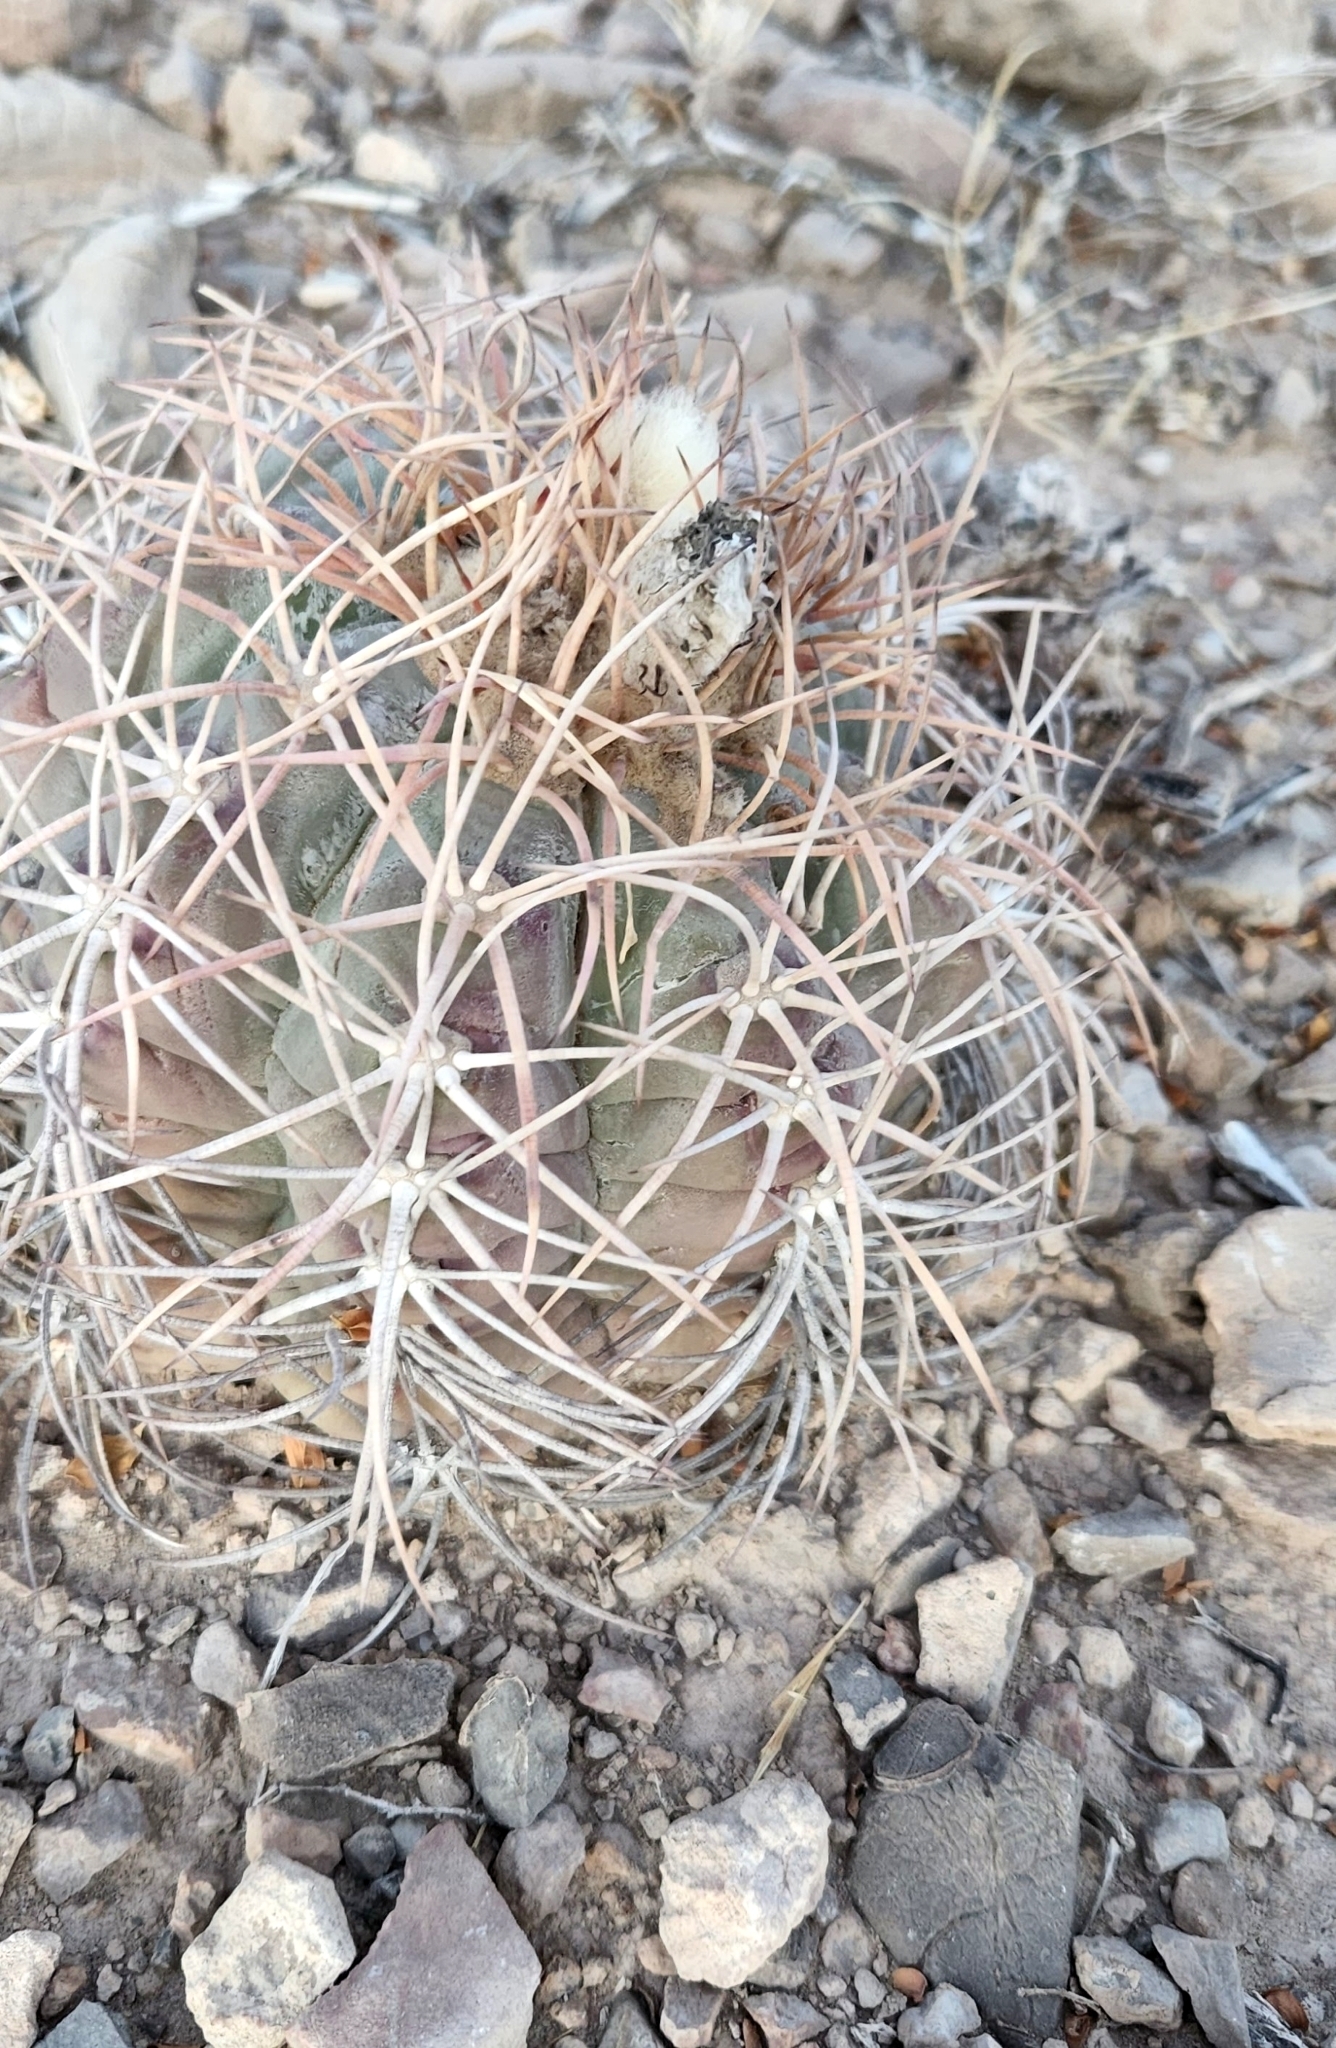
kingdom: Plantae
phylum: Tracheophyta
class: Magnoliopsida
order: Caryophyllales
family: Cactaceae
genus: Echinocactus
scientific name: Echinocactus horizonthalonius
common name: Devilshead
